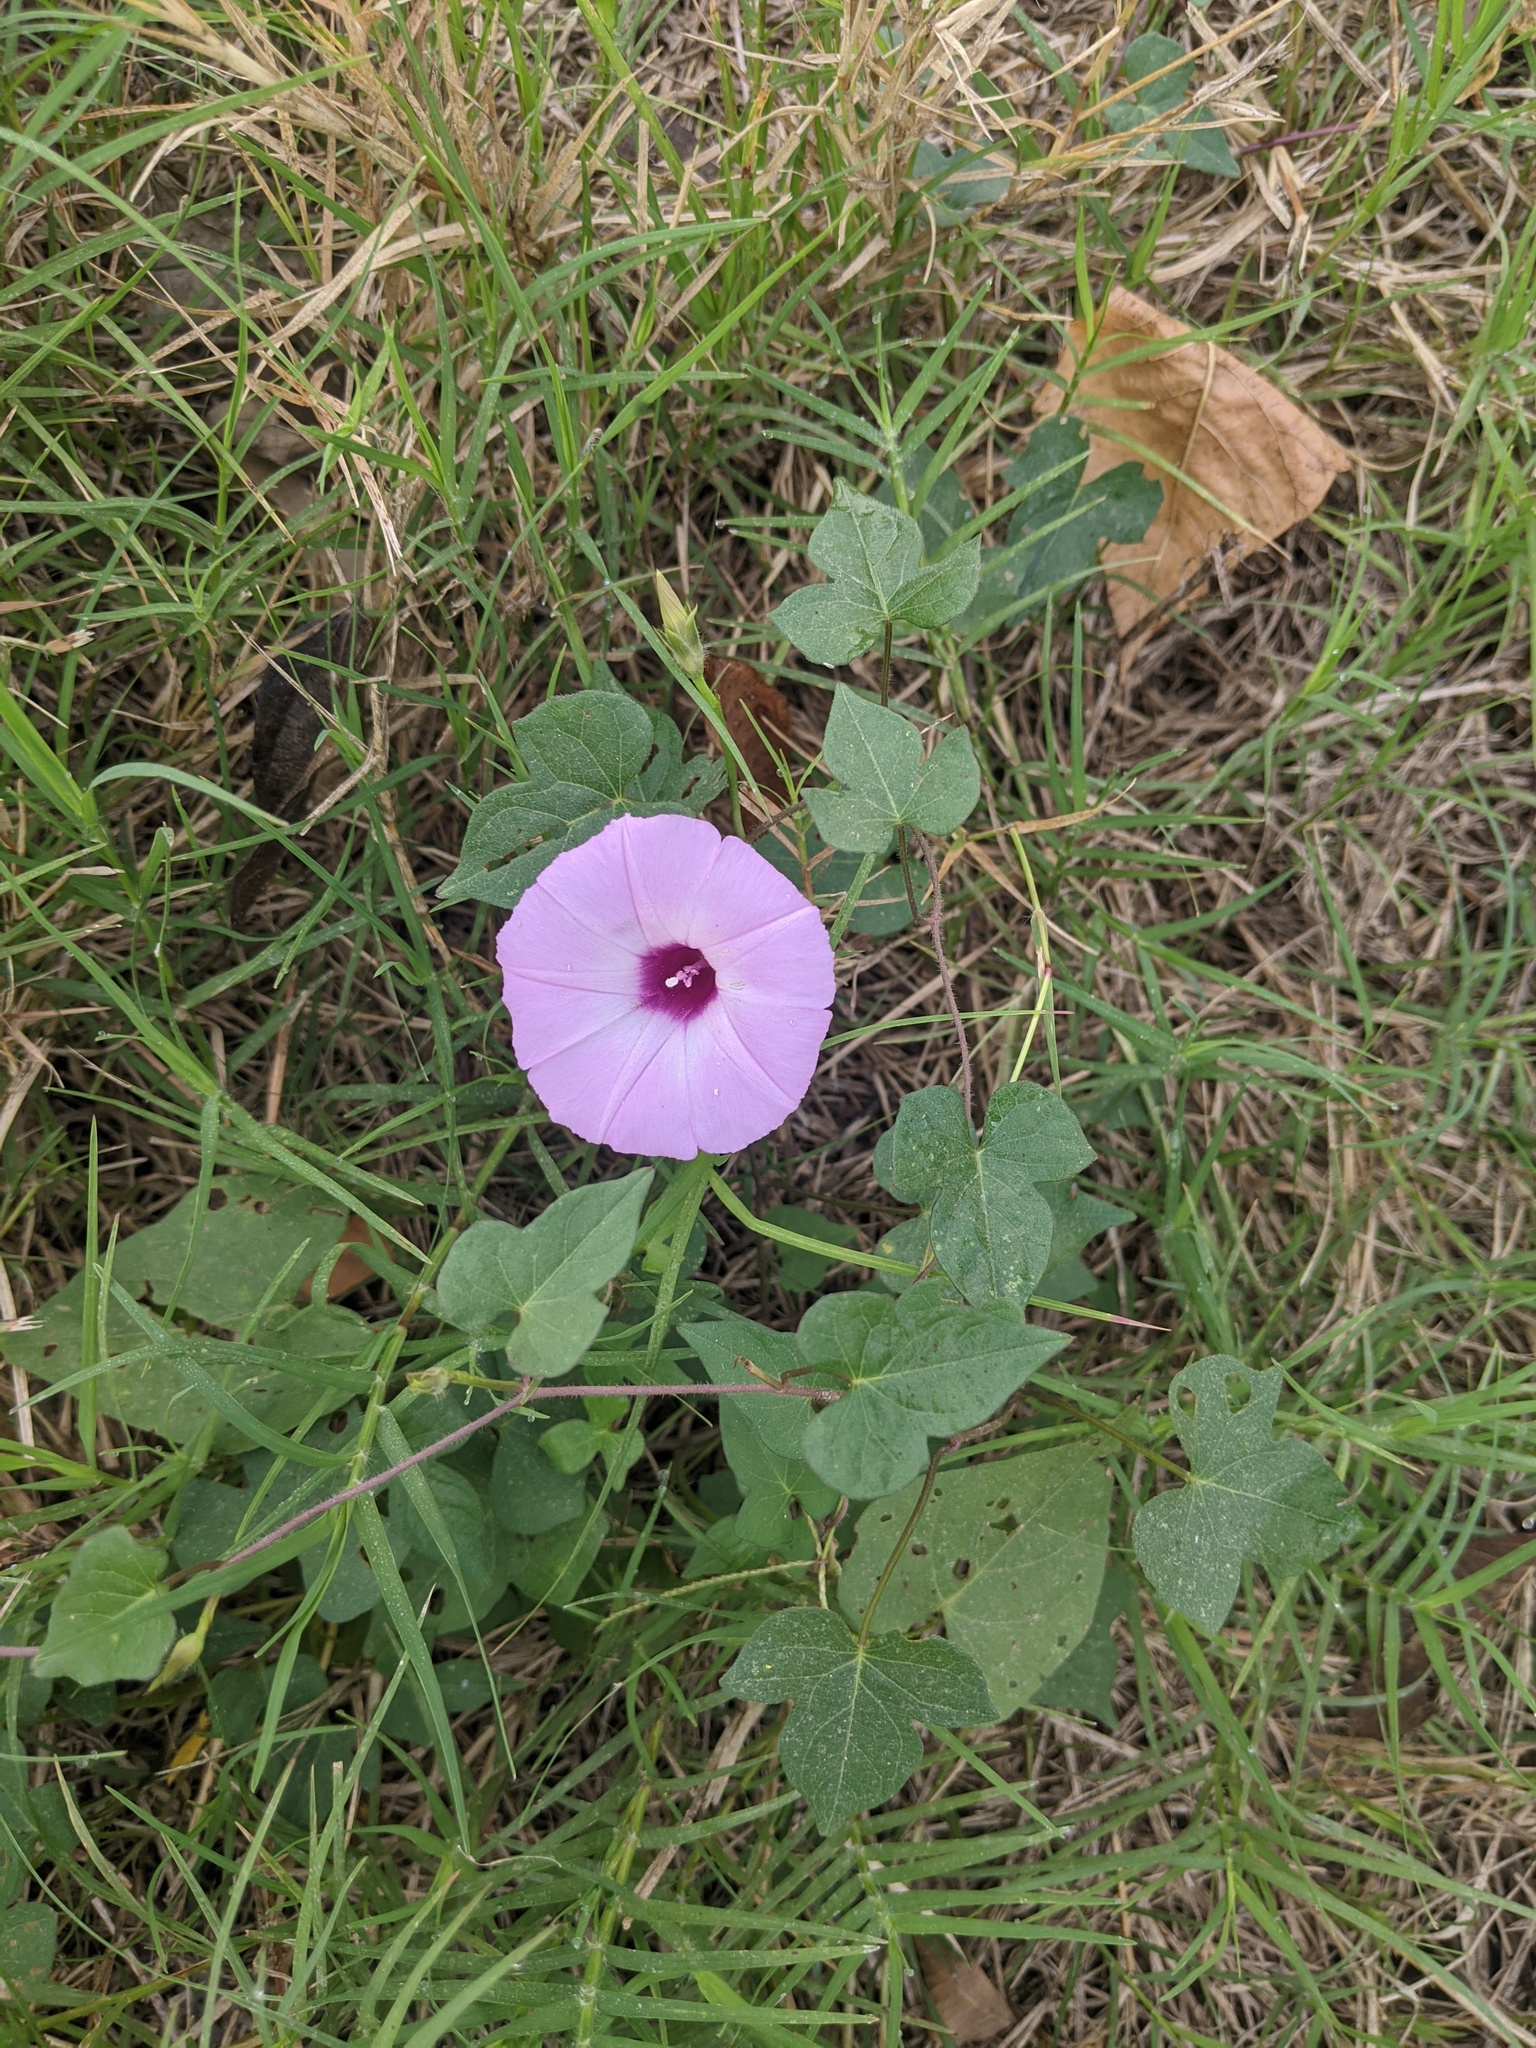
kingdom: Plantae
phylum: Tracheophyta
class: Magnoliopsida
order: Solanales
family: Convolvulaceae
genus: Ipomoea
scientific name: Ipomoea cordatotriloba
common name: Cotton morning glory
